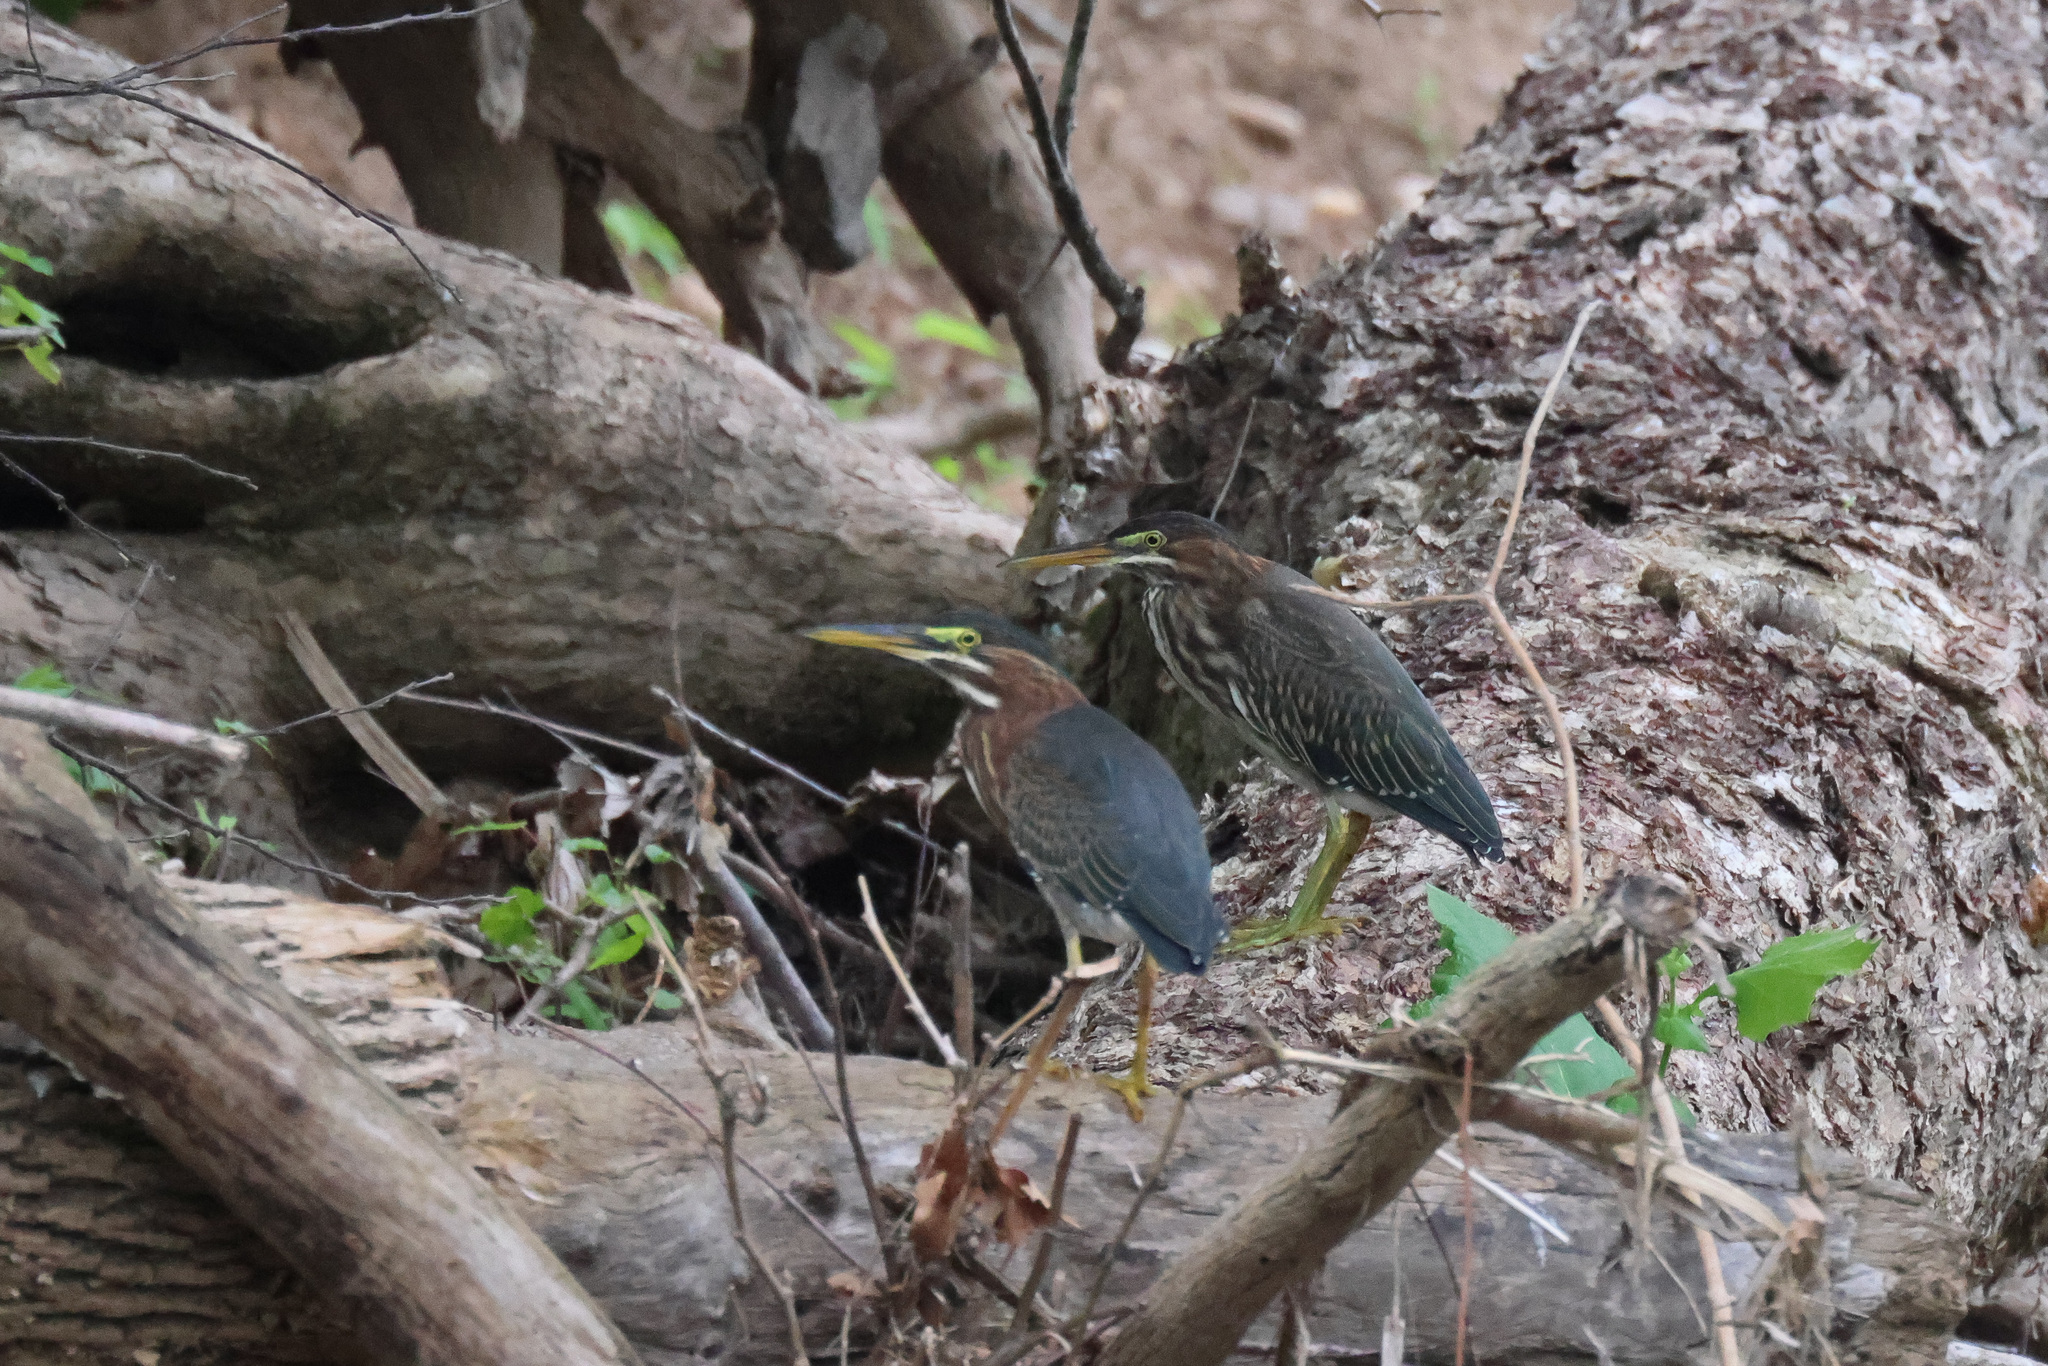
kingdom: Animalia
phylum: Chordata
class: Aves
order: Pelecaniformes
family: Ardeidae
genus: Butorides
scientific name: Butorides virescens
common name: Green heron
